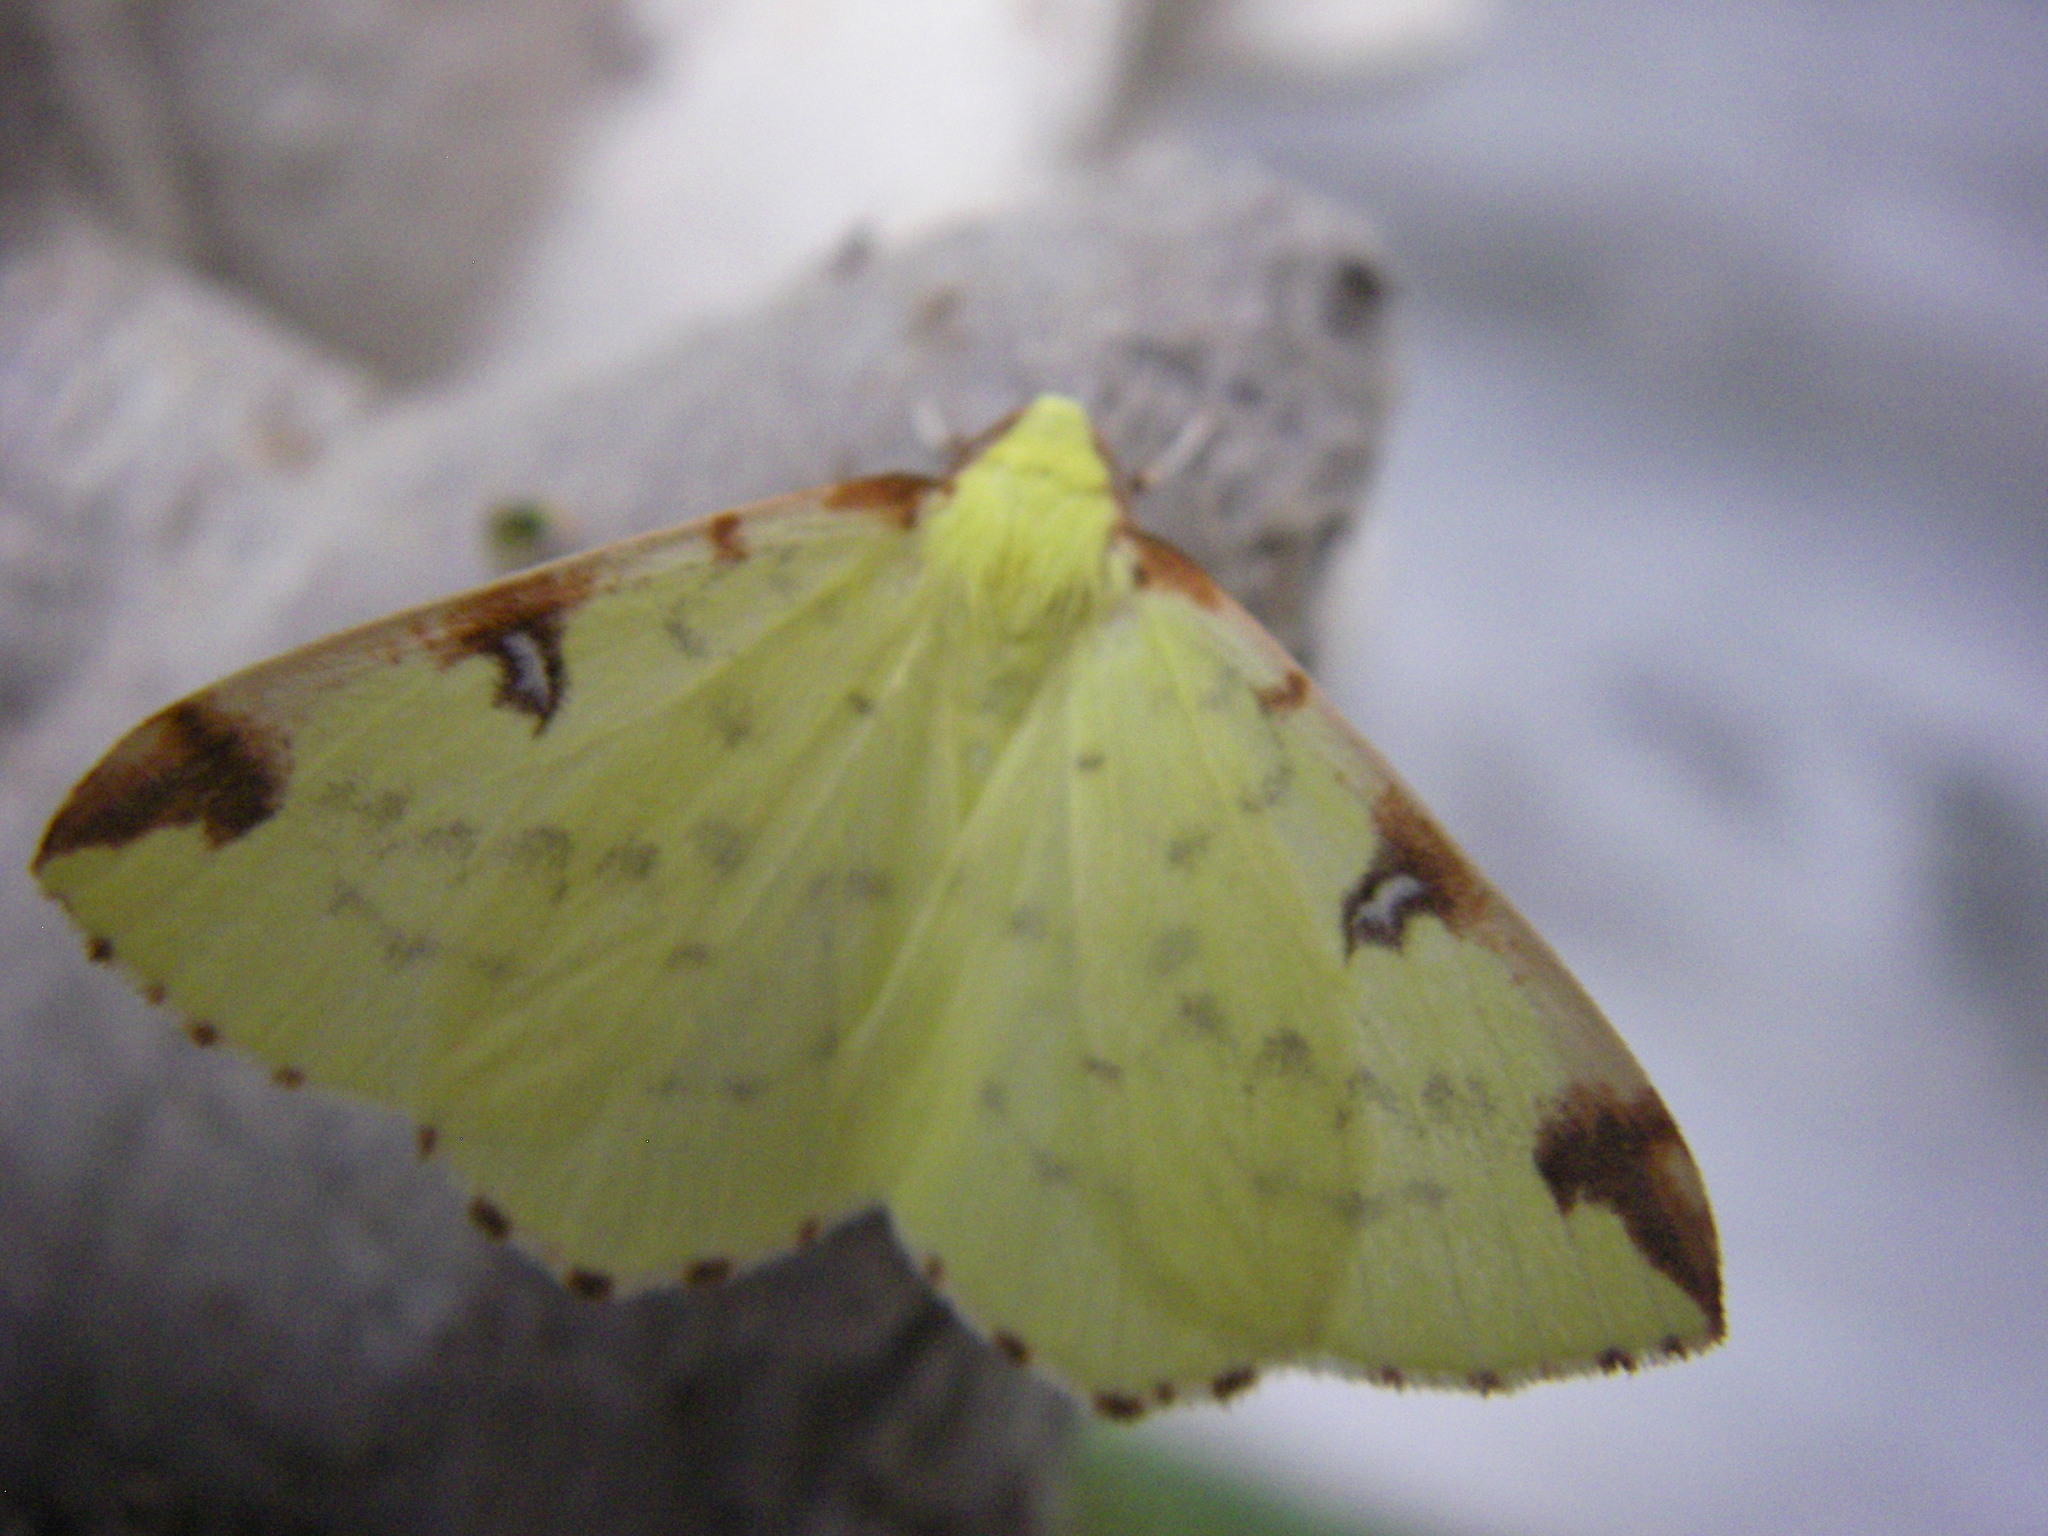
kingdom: Animalia
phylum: Arthropoda
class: Insecta
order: Lepidoptera
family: Geometridae
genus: Opisthograptis
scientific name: Opisthograptis luteolata
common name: Brimstone moth
